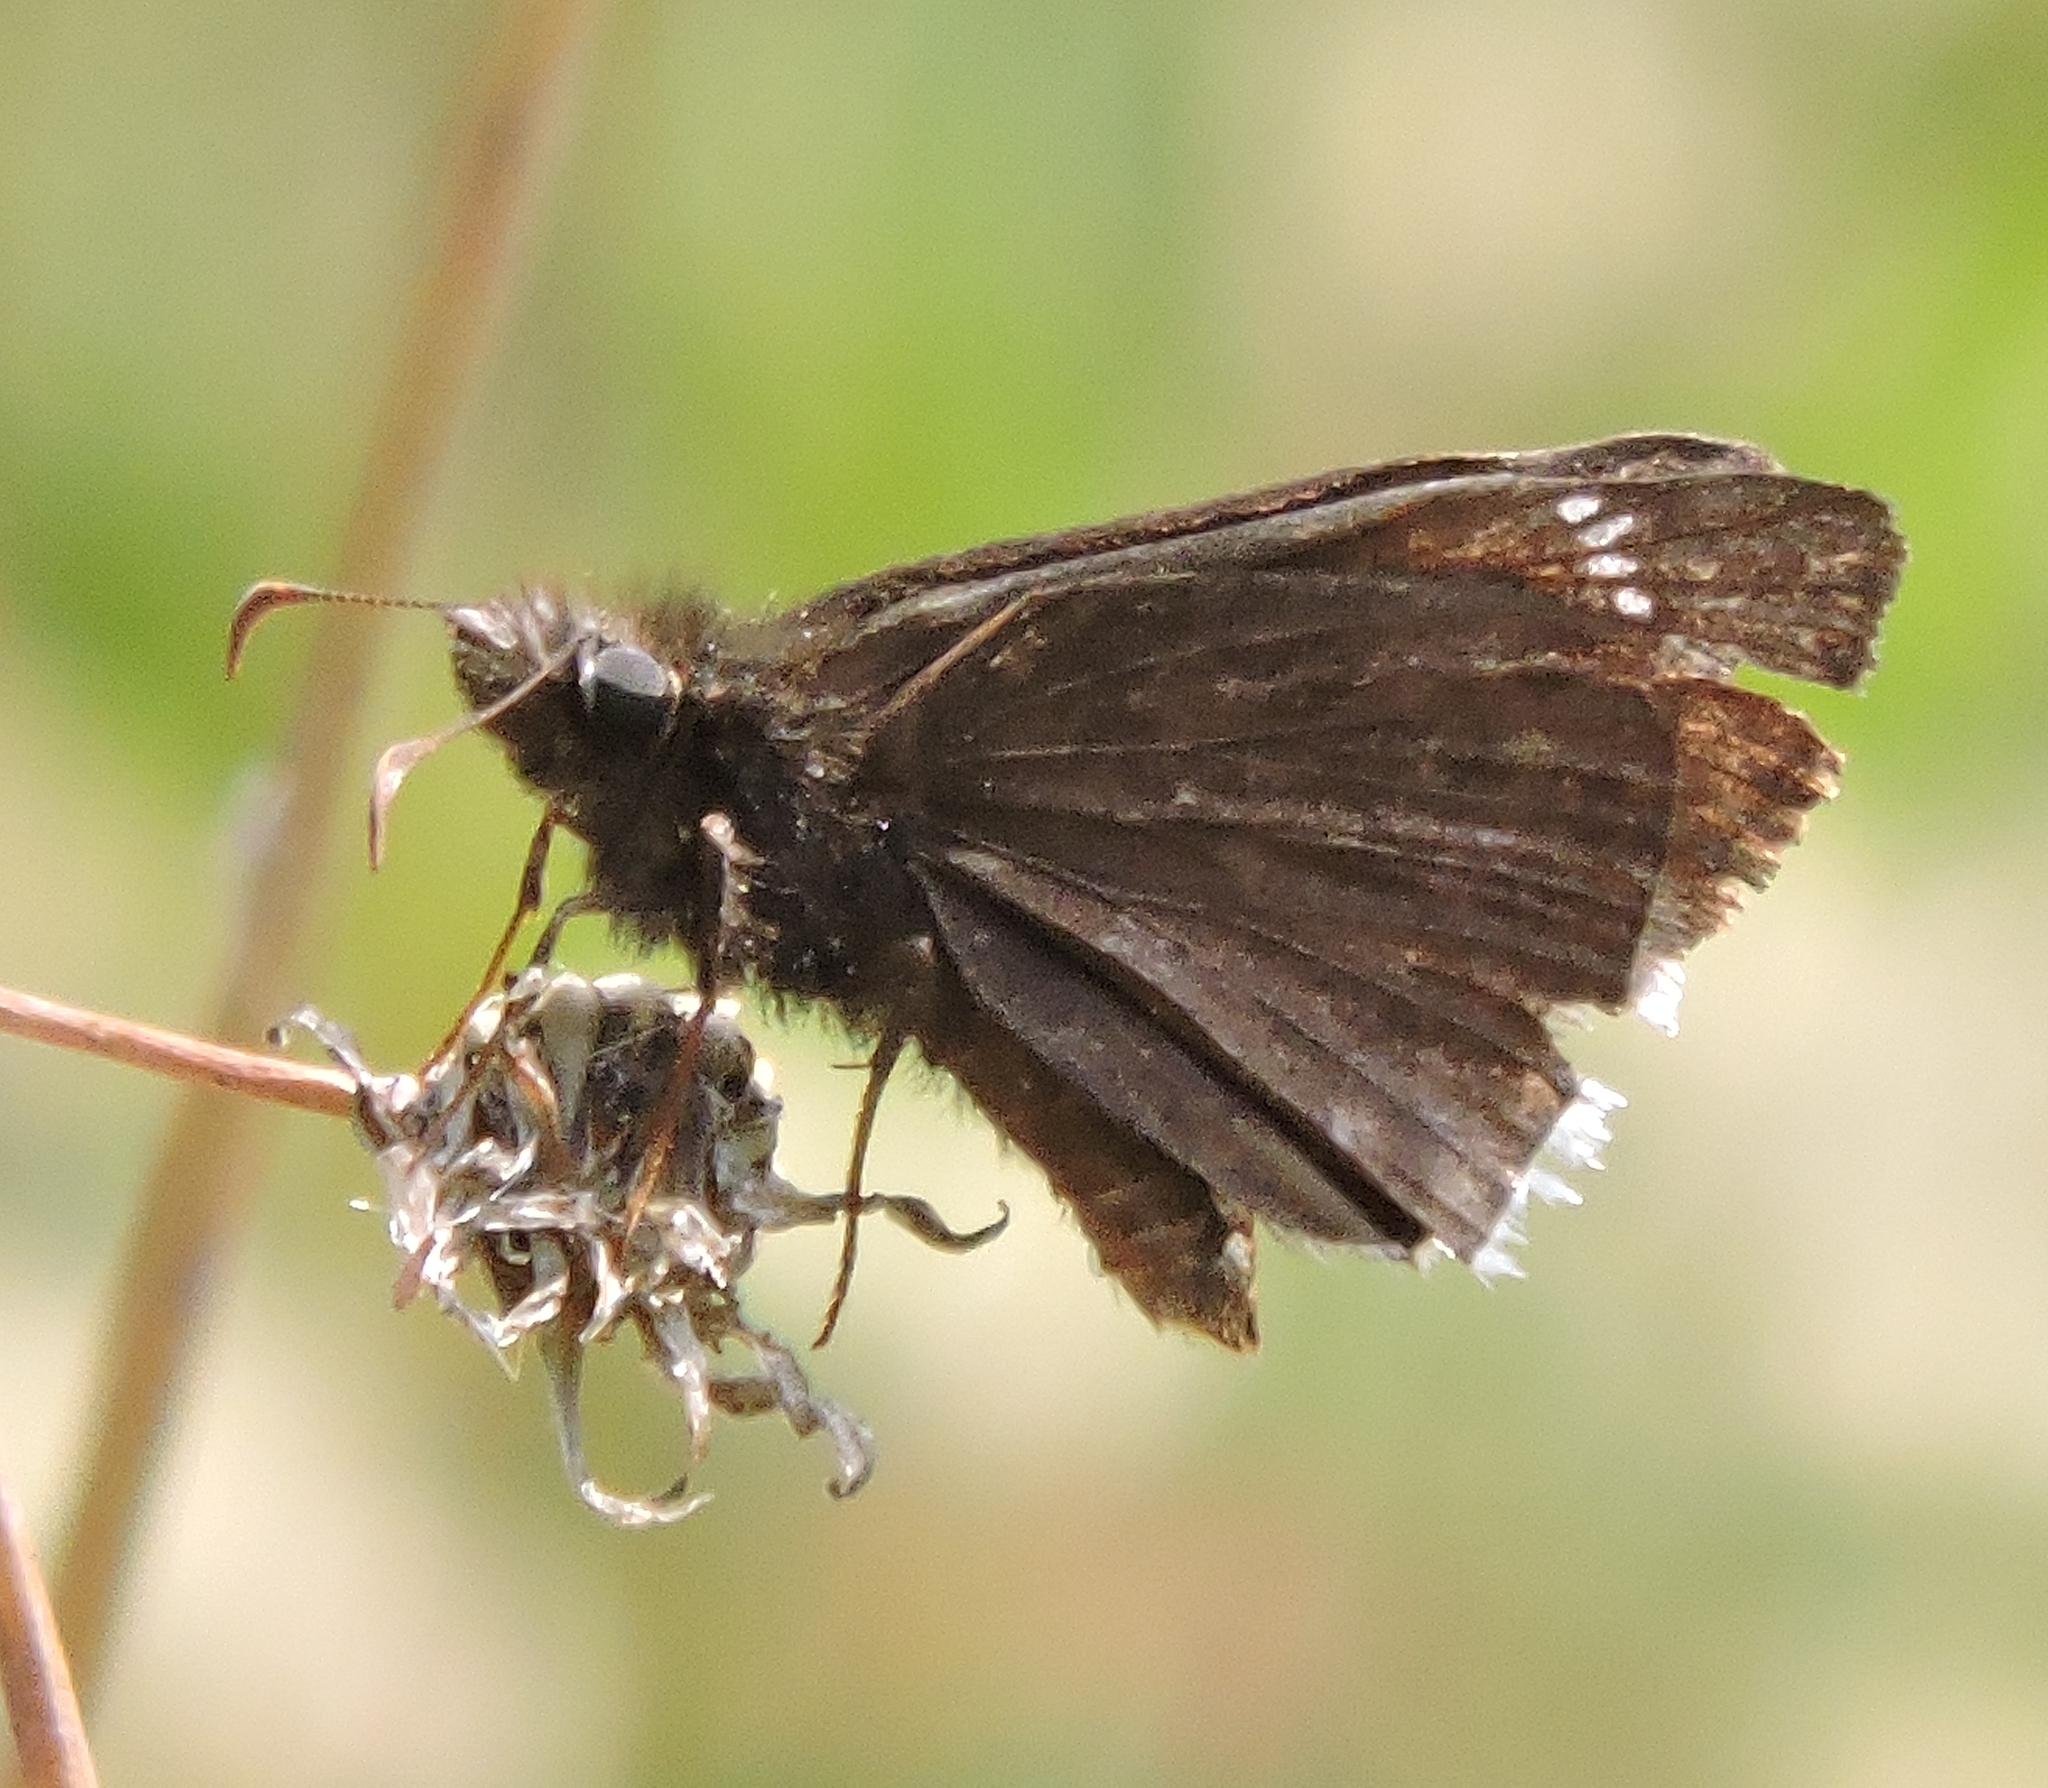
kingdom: Animalia
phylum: Arthropoda
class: Insecta
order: Lepidoptera
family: Hesperiidae
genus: Erynnis
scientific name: Erynnis tristis
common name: Mournful duskywing
